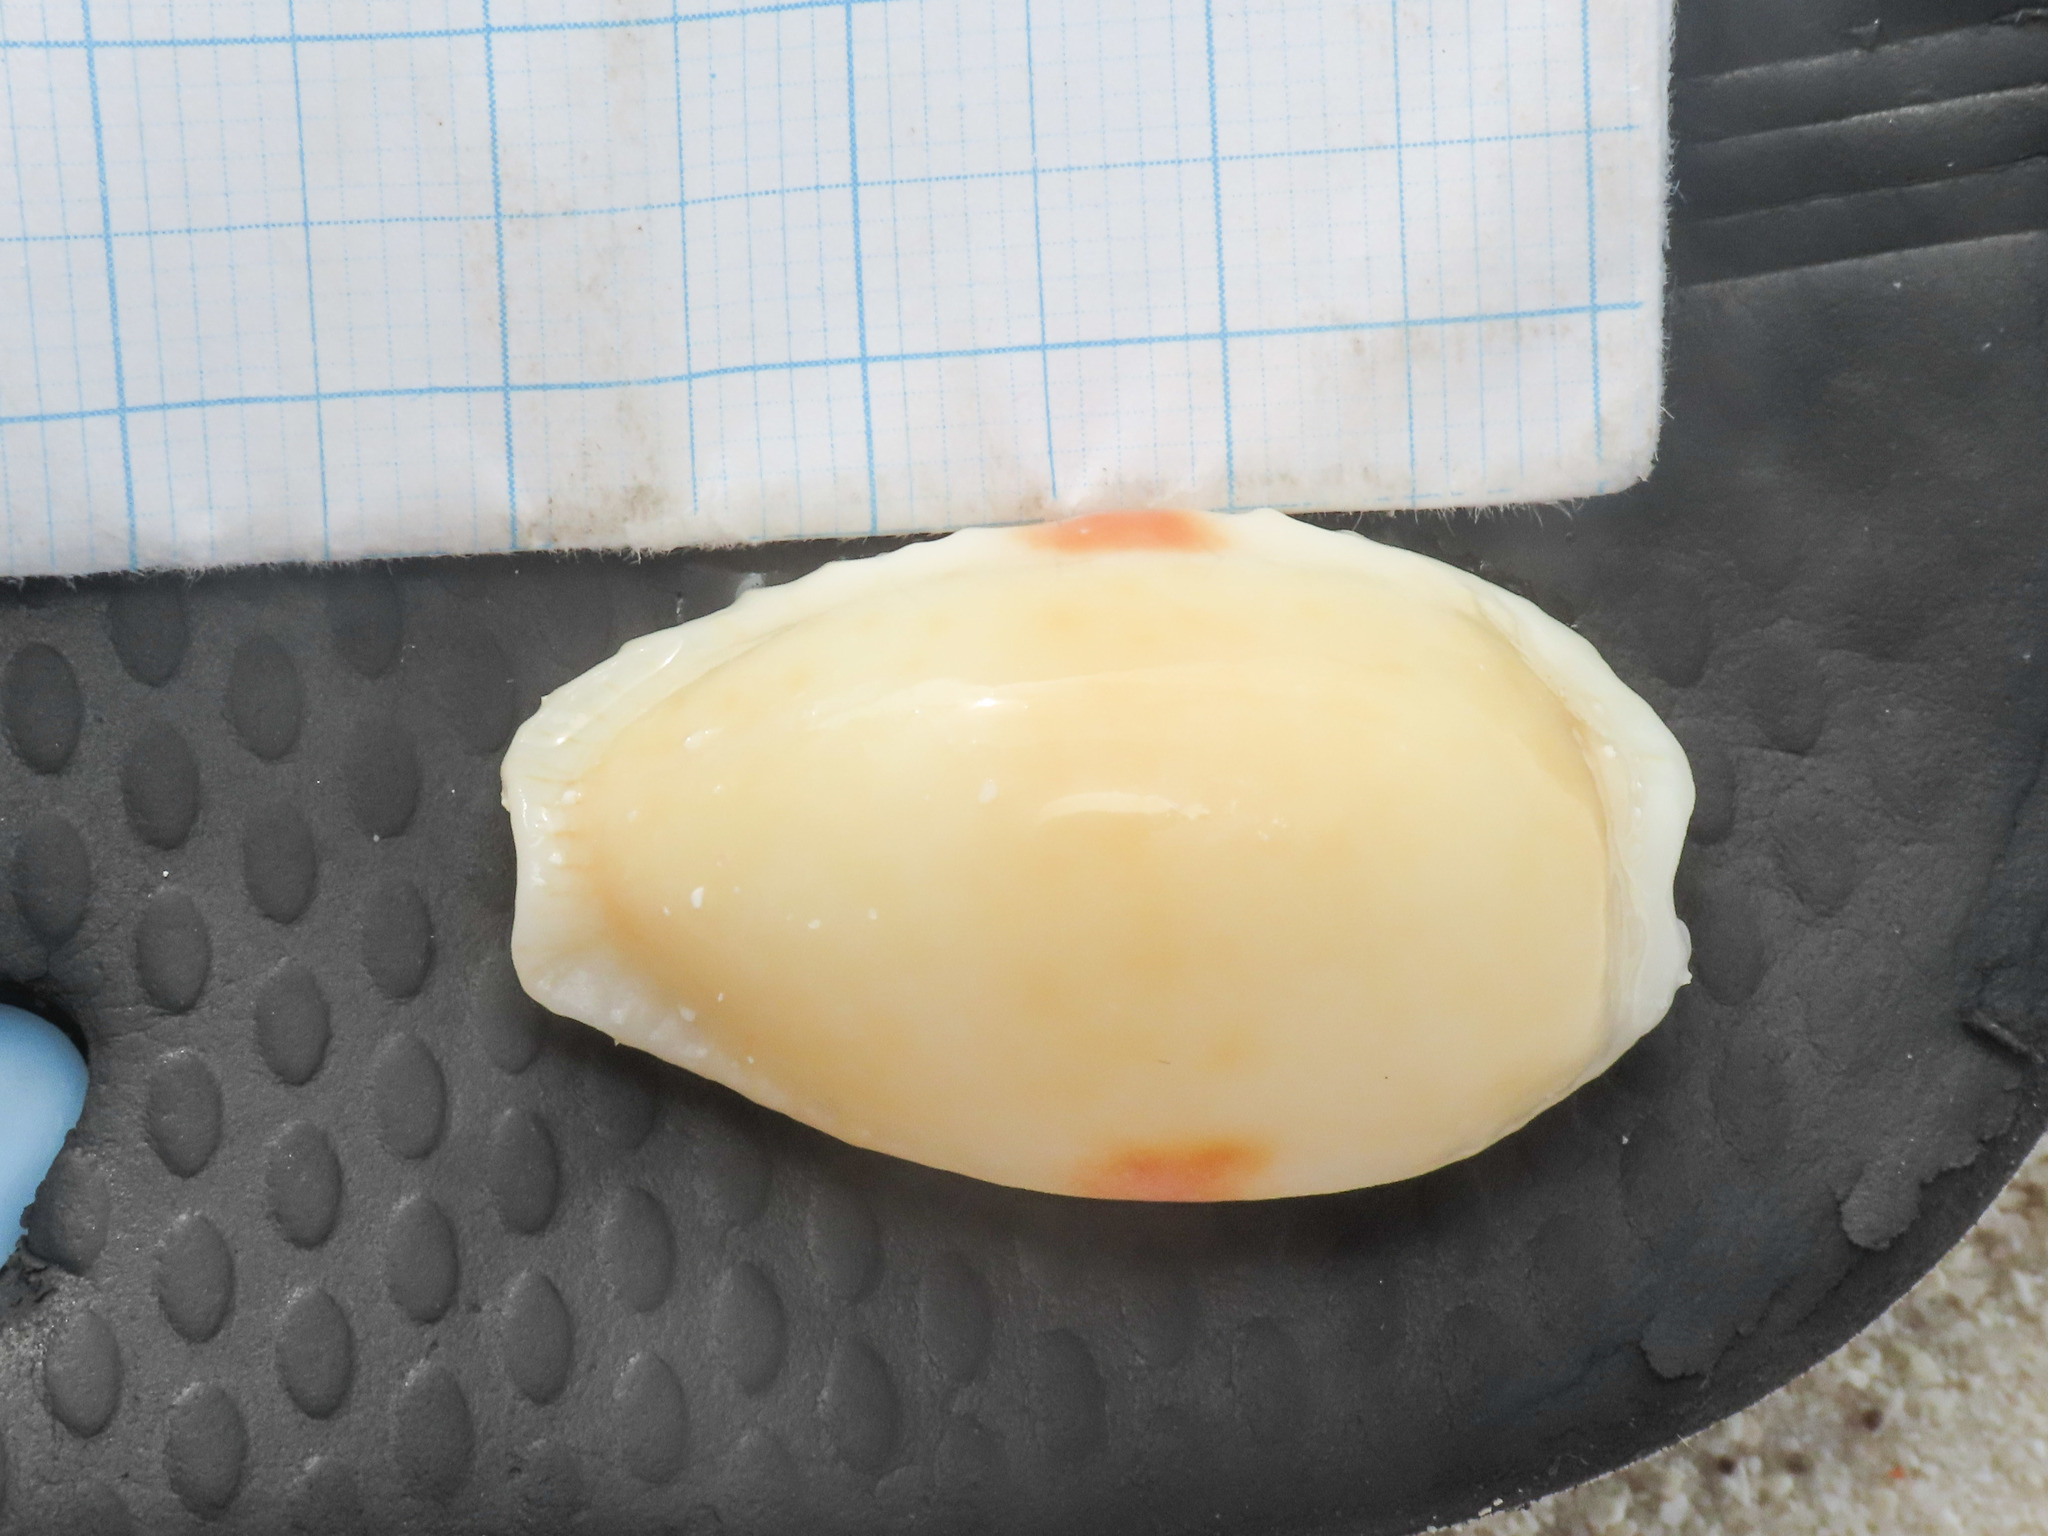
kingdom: Animalia
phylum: Mollusca
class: Gastropoda
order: Littorinimorpha
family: Cypraeidae
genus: Naria
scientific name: Naria erosa
